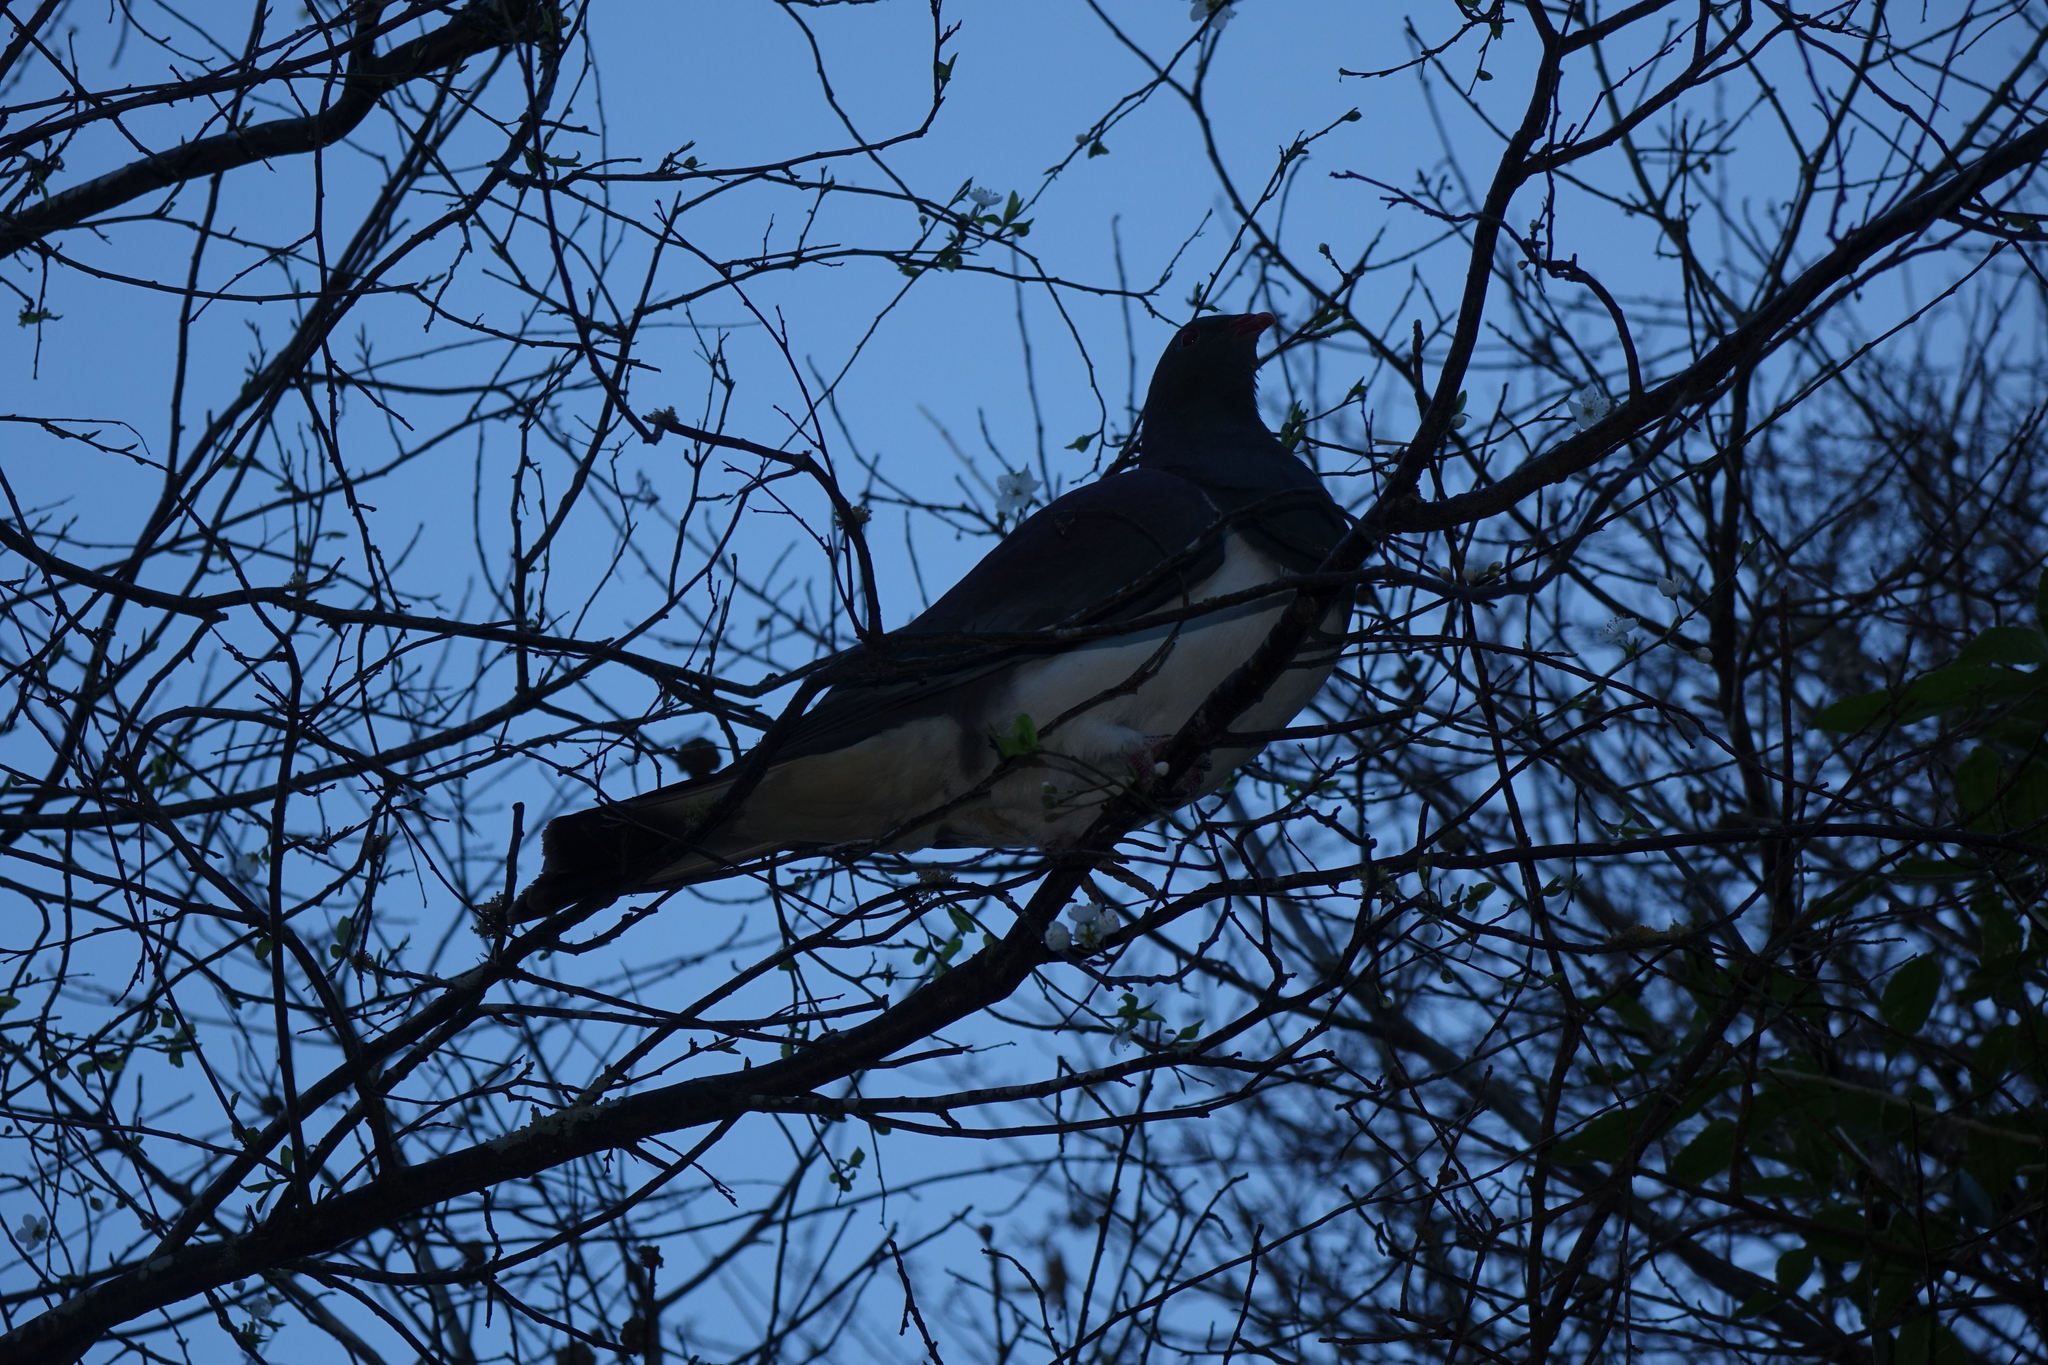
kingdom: Animalia
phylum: Chordata
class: Aves
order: Columbiformes
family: Columbidae
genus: Hemiphaga
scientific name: Hemiphaga novaeseelandiae
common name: New zealand pigeon
